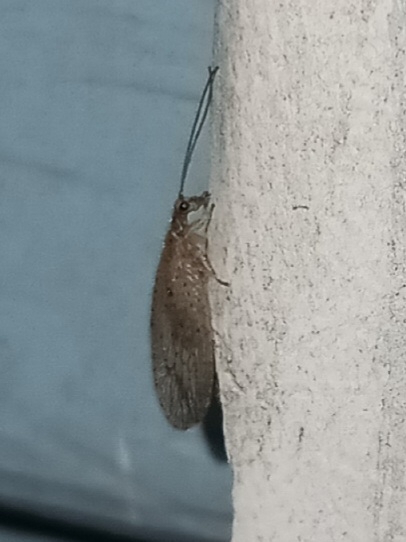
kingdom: Animalia
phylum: Arthropoda
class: Insecta
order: Neuroptera
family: Hemerobiidae
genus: Micromus
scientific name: Micromus subanticus
